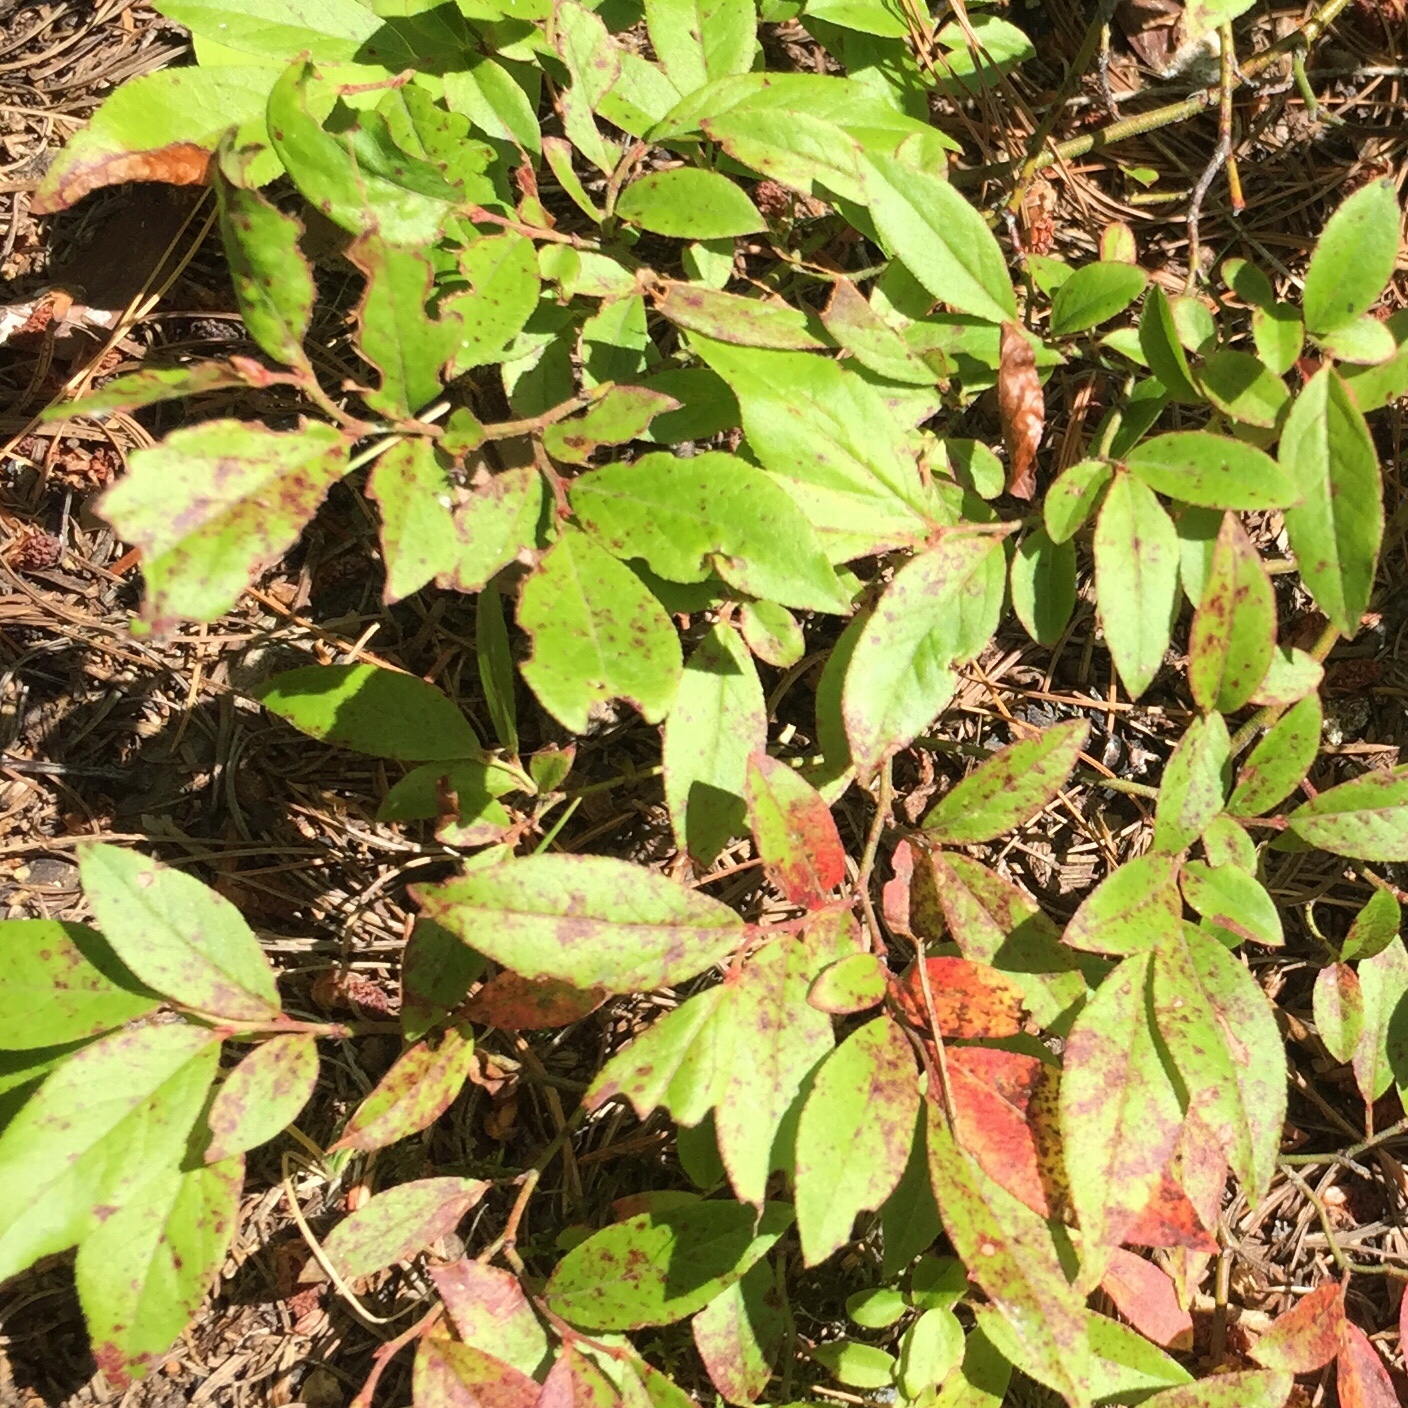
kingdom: Plantae
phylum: Tracheophyta
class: Magnoliopsida
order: Ericales
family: Ericaceae
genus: Vaccinium
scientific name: Vaccinium angustifolium
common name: Early lowbush blueberry
